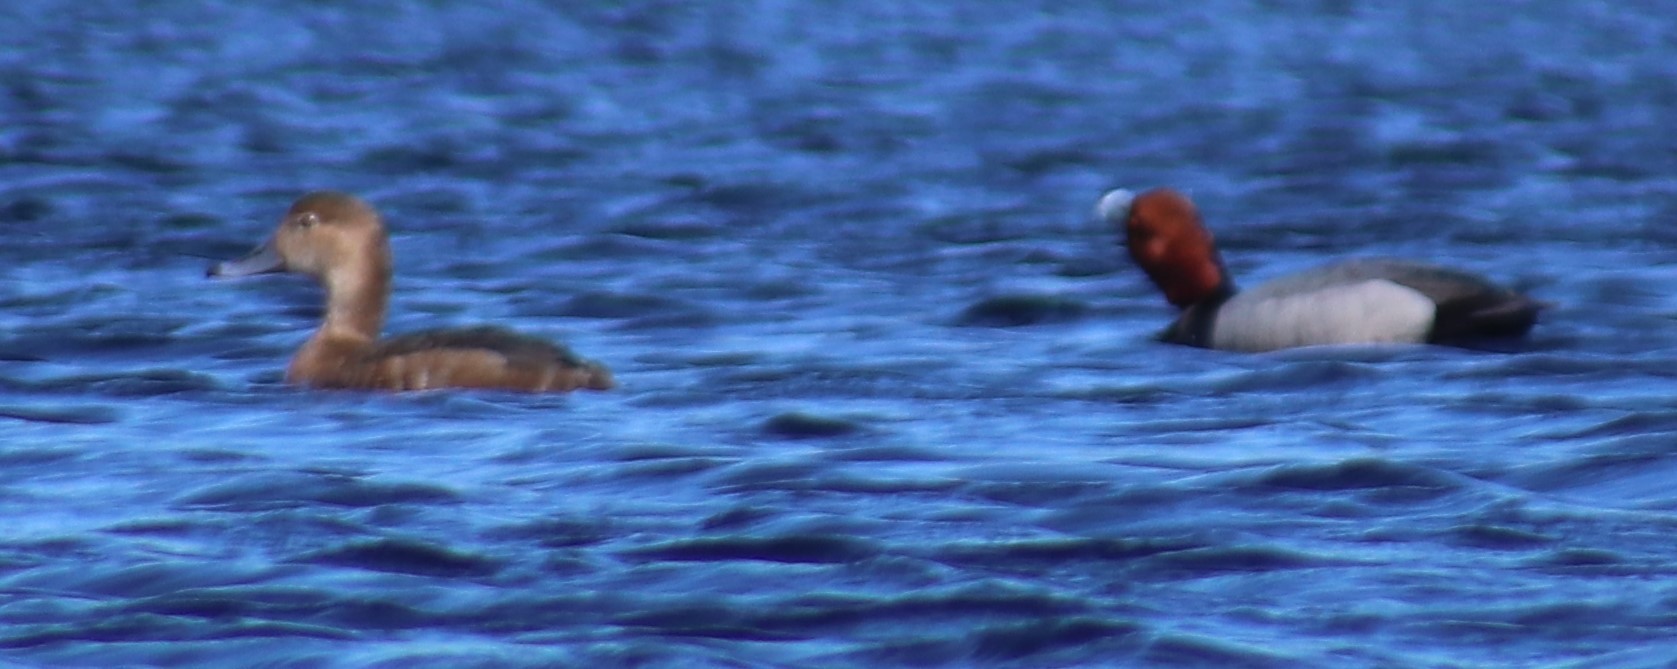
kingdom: Animalia
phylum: Chordata
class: Aves
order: Anseriformes
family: Anatidae
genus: Aythya
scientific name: Aythya americana
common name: Redhead
